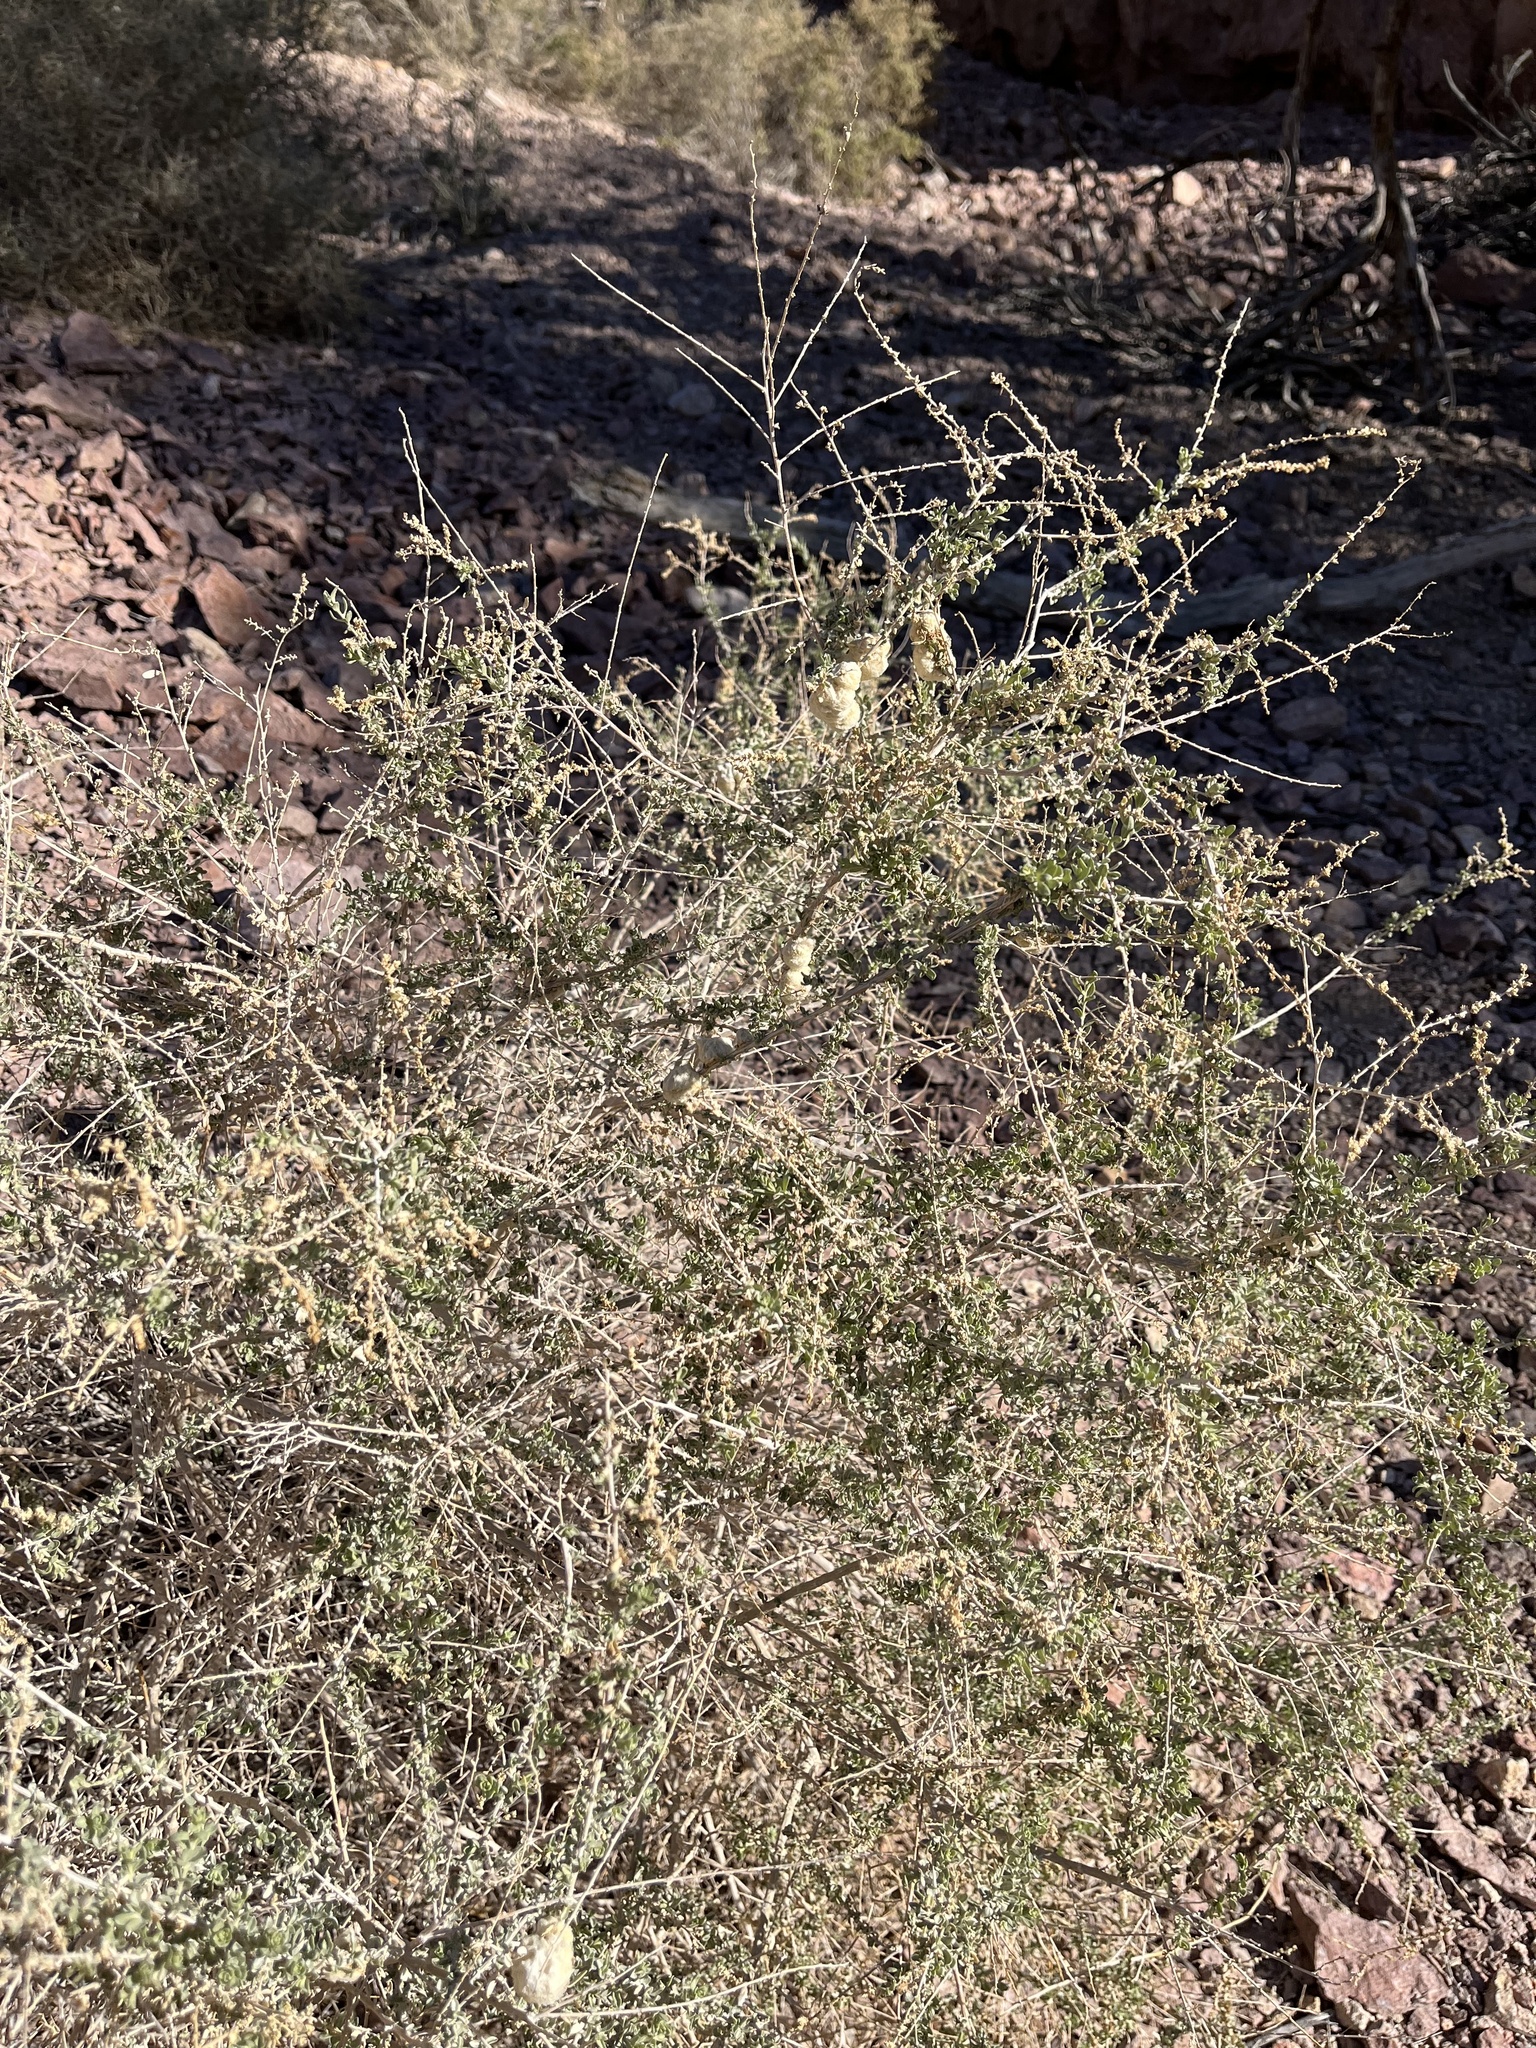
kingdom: Plantae
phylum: Tracheophyta
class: Magnoliopsida
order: Caryophyllales
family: Amaranthaceae
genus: Atriplex
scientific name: Atriplex polycarpa
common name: Desert saltbush
